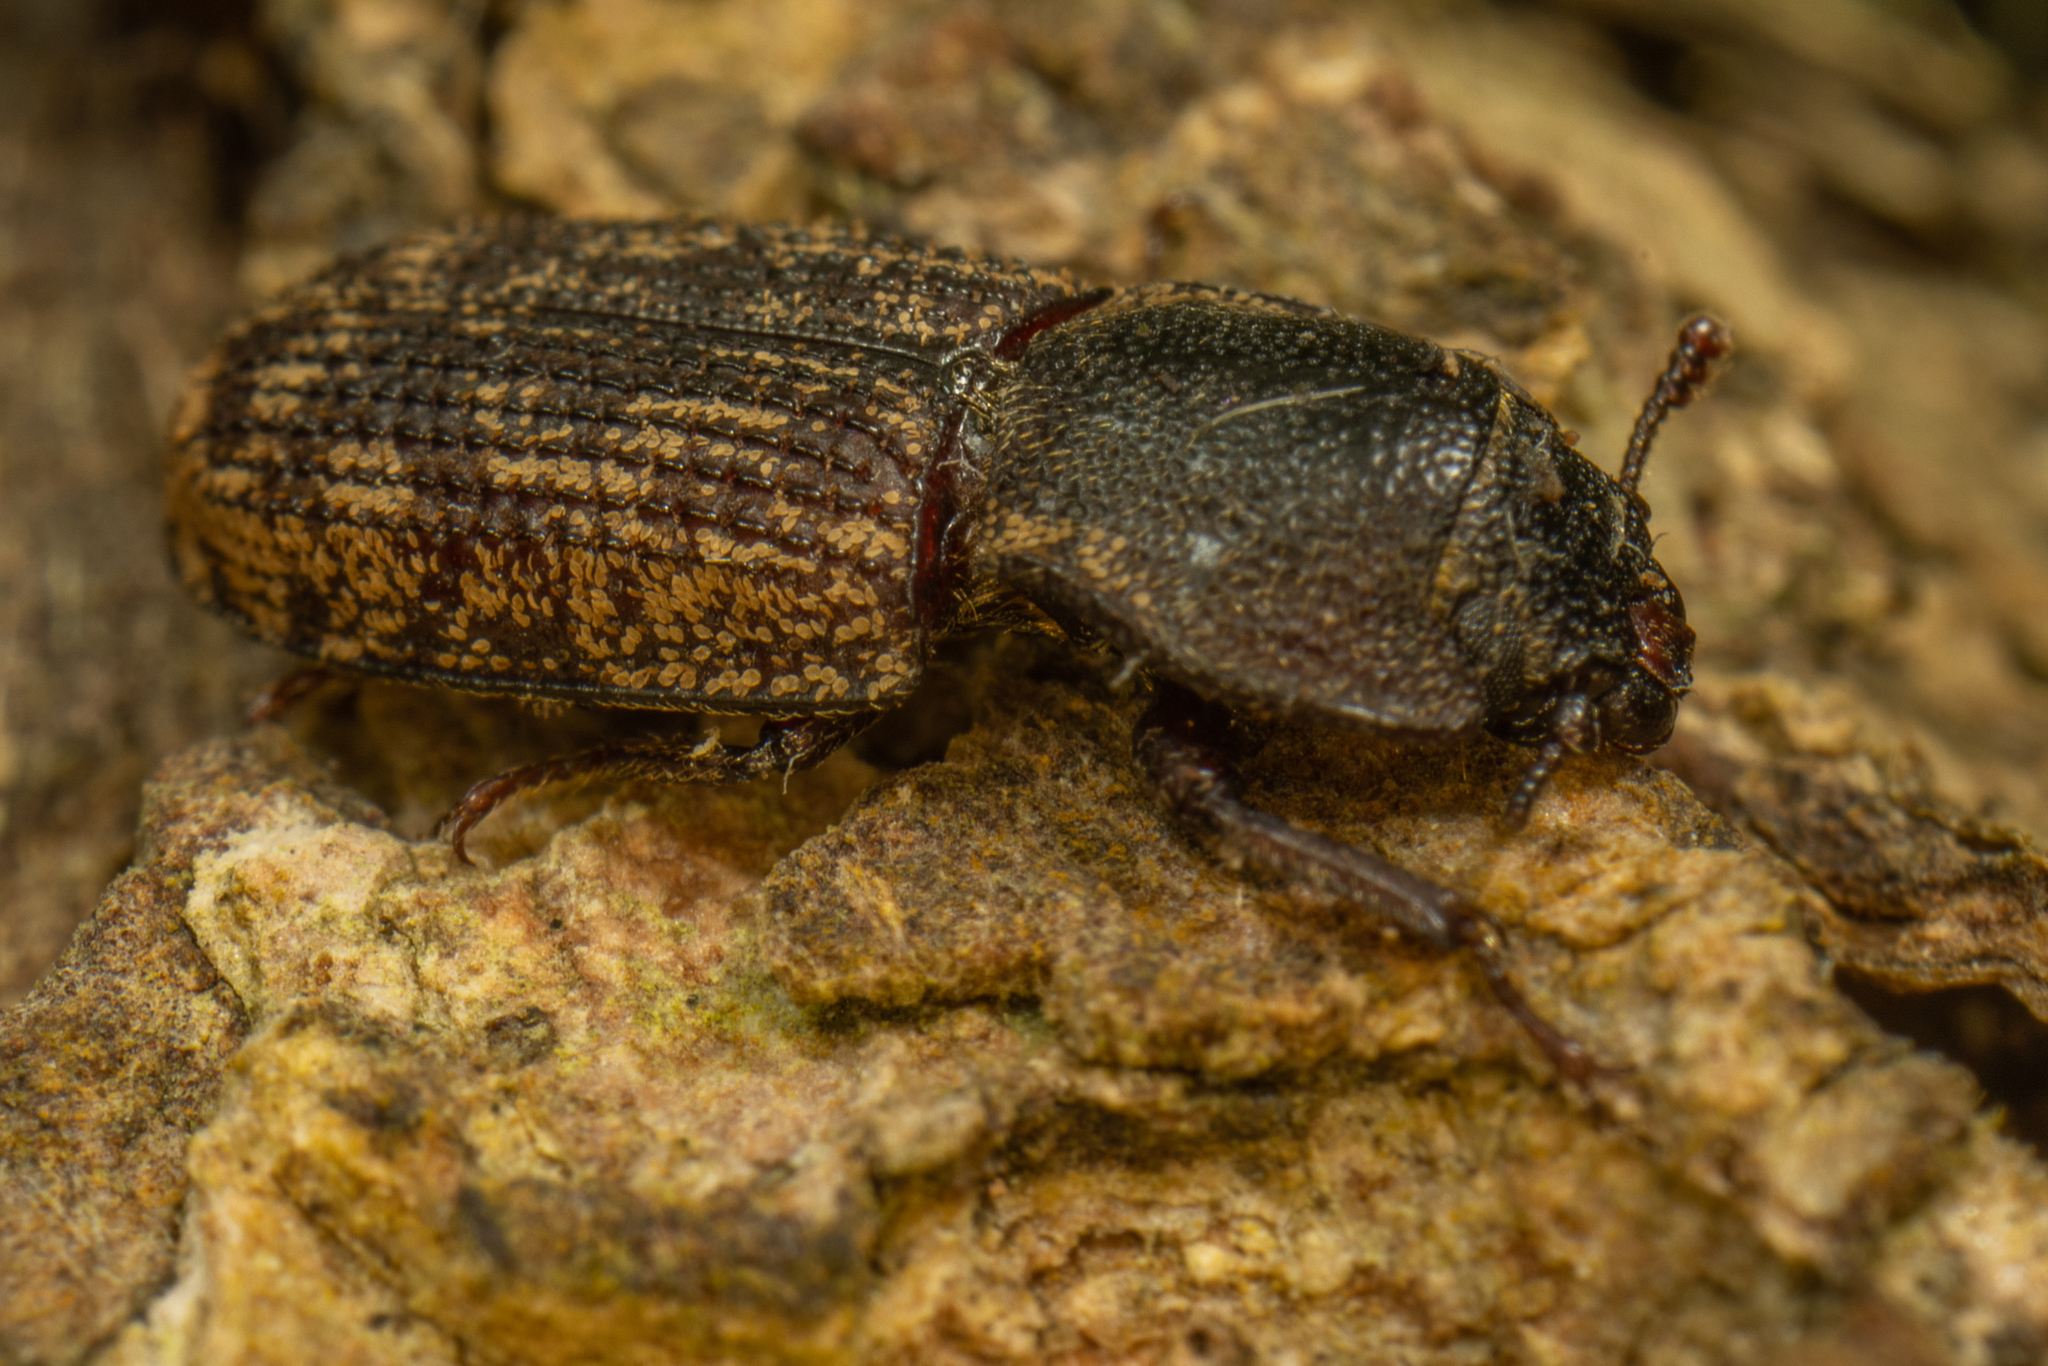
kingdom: Animalia
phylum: Arthropoda
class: Insecta
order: Coleoptera
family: Trogossitidae
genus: Phanodesta
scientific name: Phanodesta
